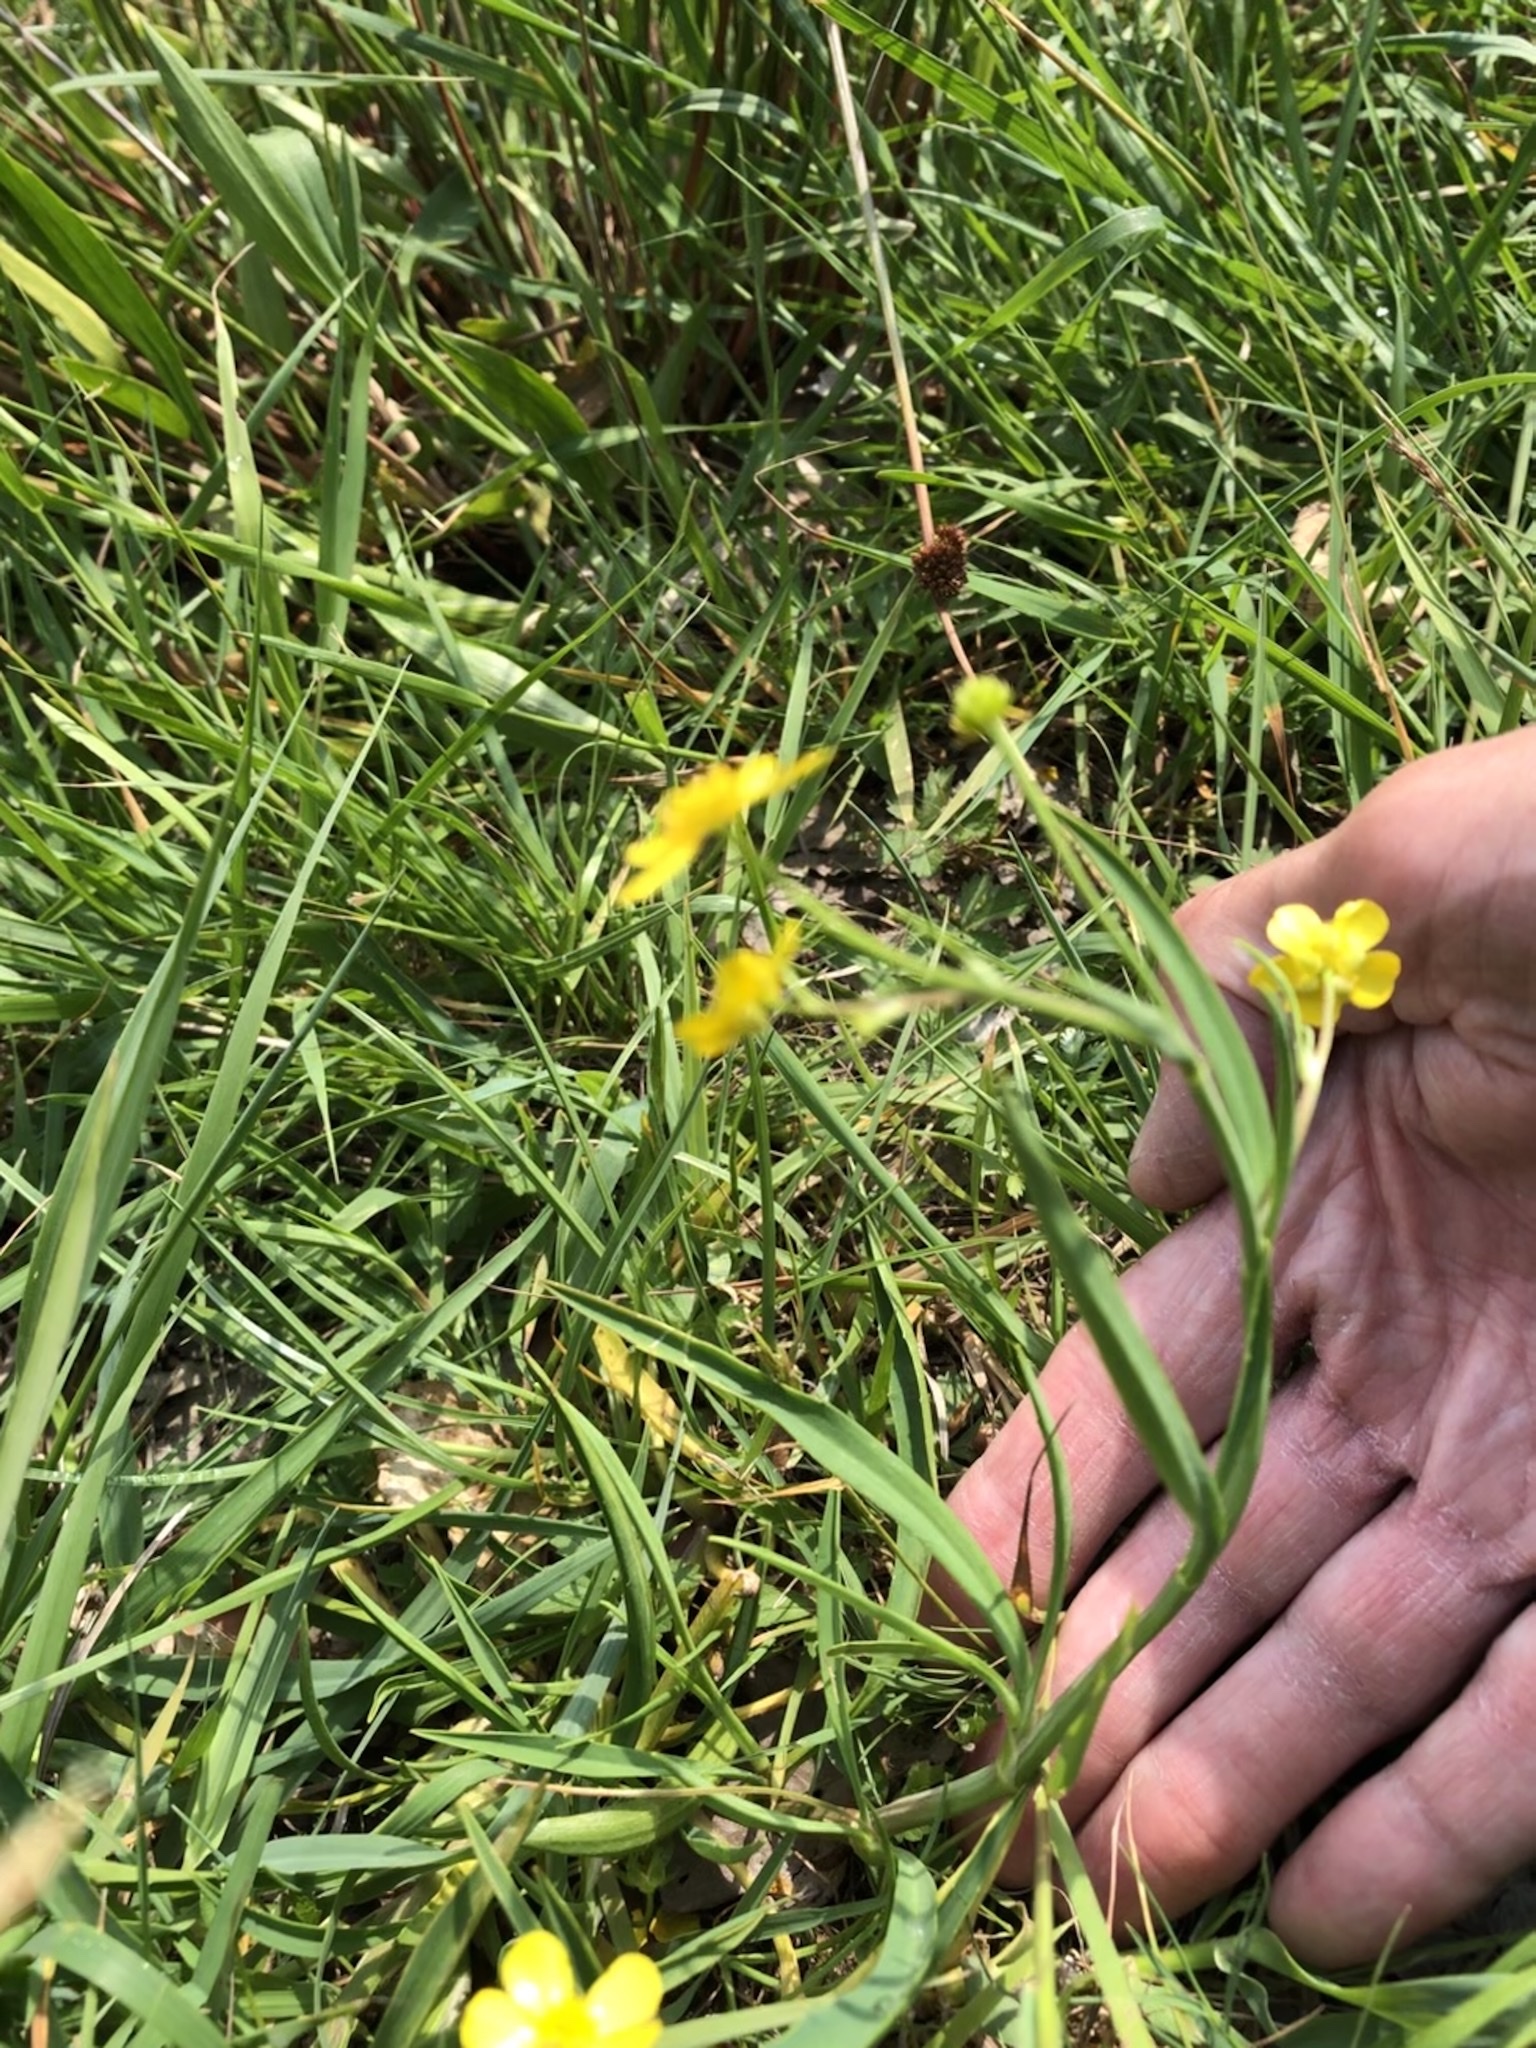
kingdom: Plantae
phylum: Tracheophyta
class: Magnoliopsida
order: Ranunculales
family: Ranunculaceae
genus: Ranunculus
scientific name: Ranunculus flammula
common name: Lesser spearwort
